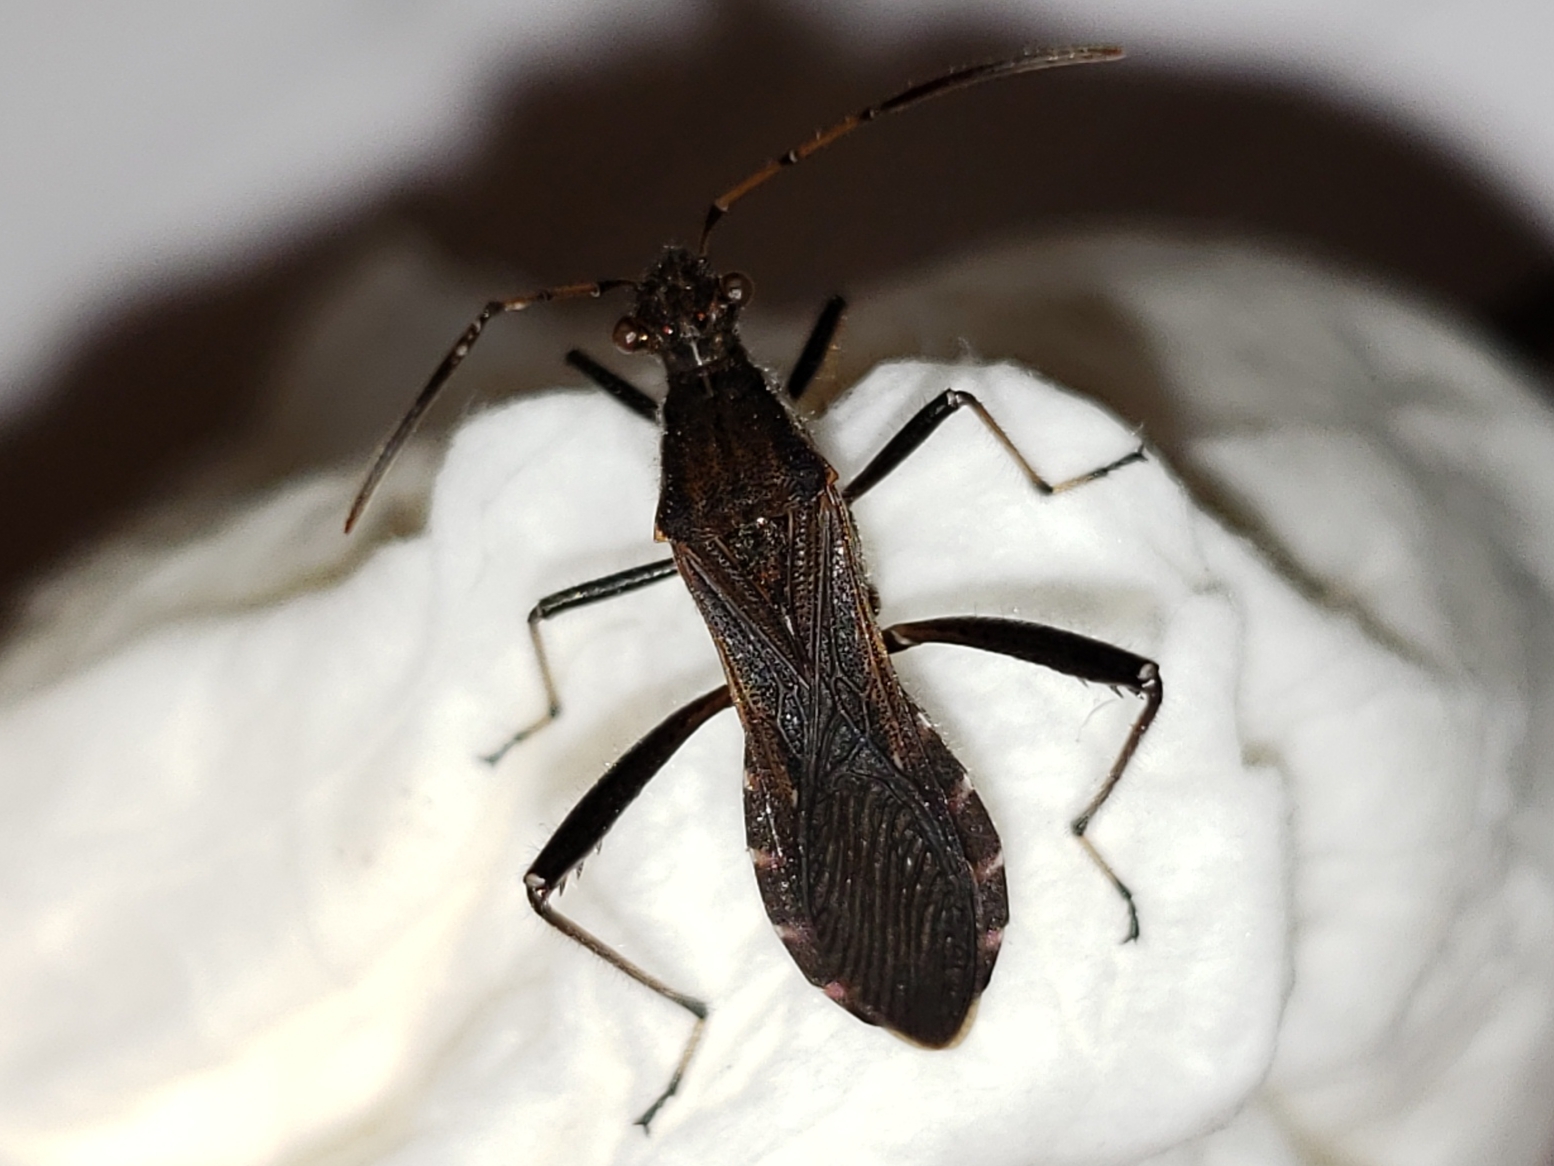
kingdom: Animalia
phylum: Arthropoda
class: Insecta
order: Hemiptera
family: Alydidae
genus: Alydus
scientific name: Alydus pilosulus
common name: Broad-headed bug
